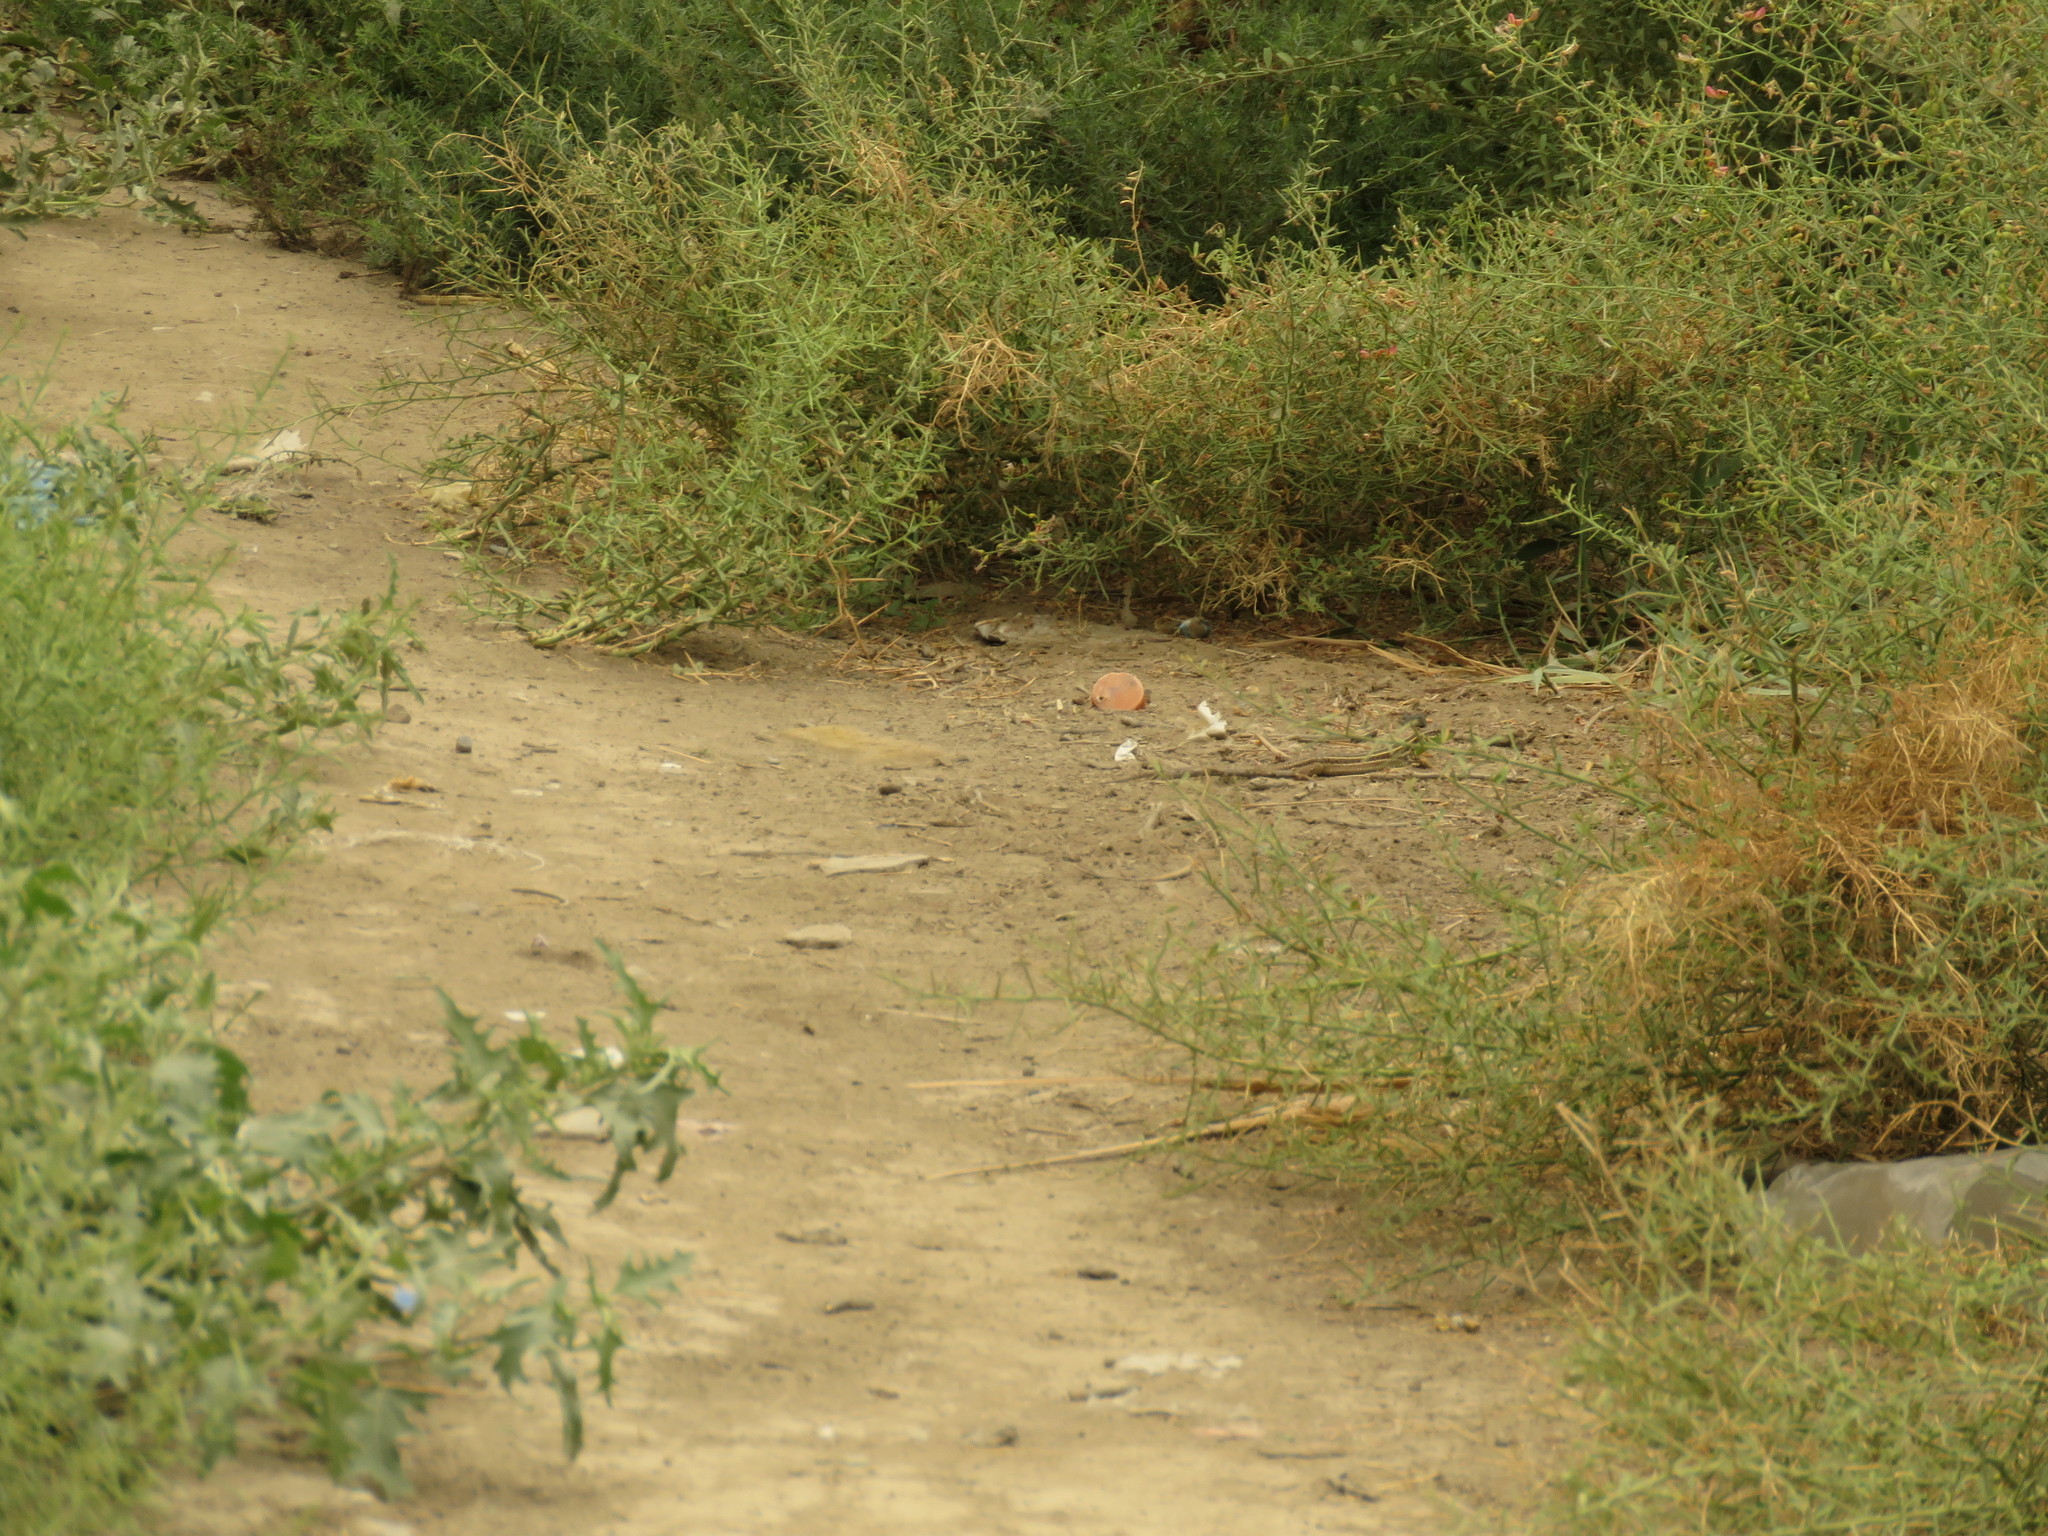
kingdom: Animalia
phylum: Chordata
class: Squamata
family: Lacertidae
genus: Lacerta
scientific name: Lacerta strigata
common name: Caspian green lizard
